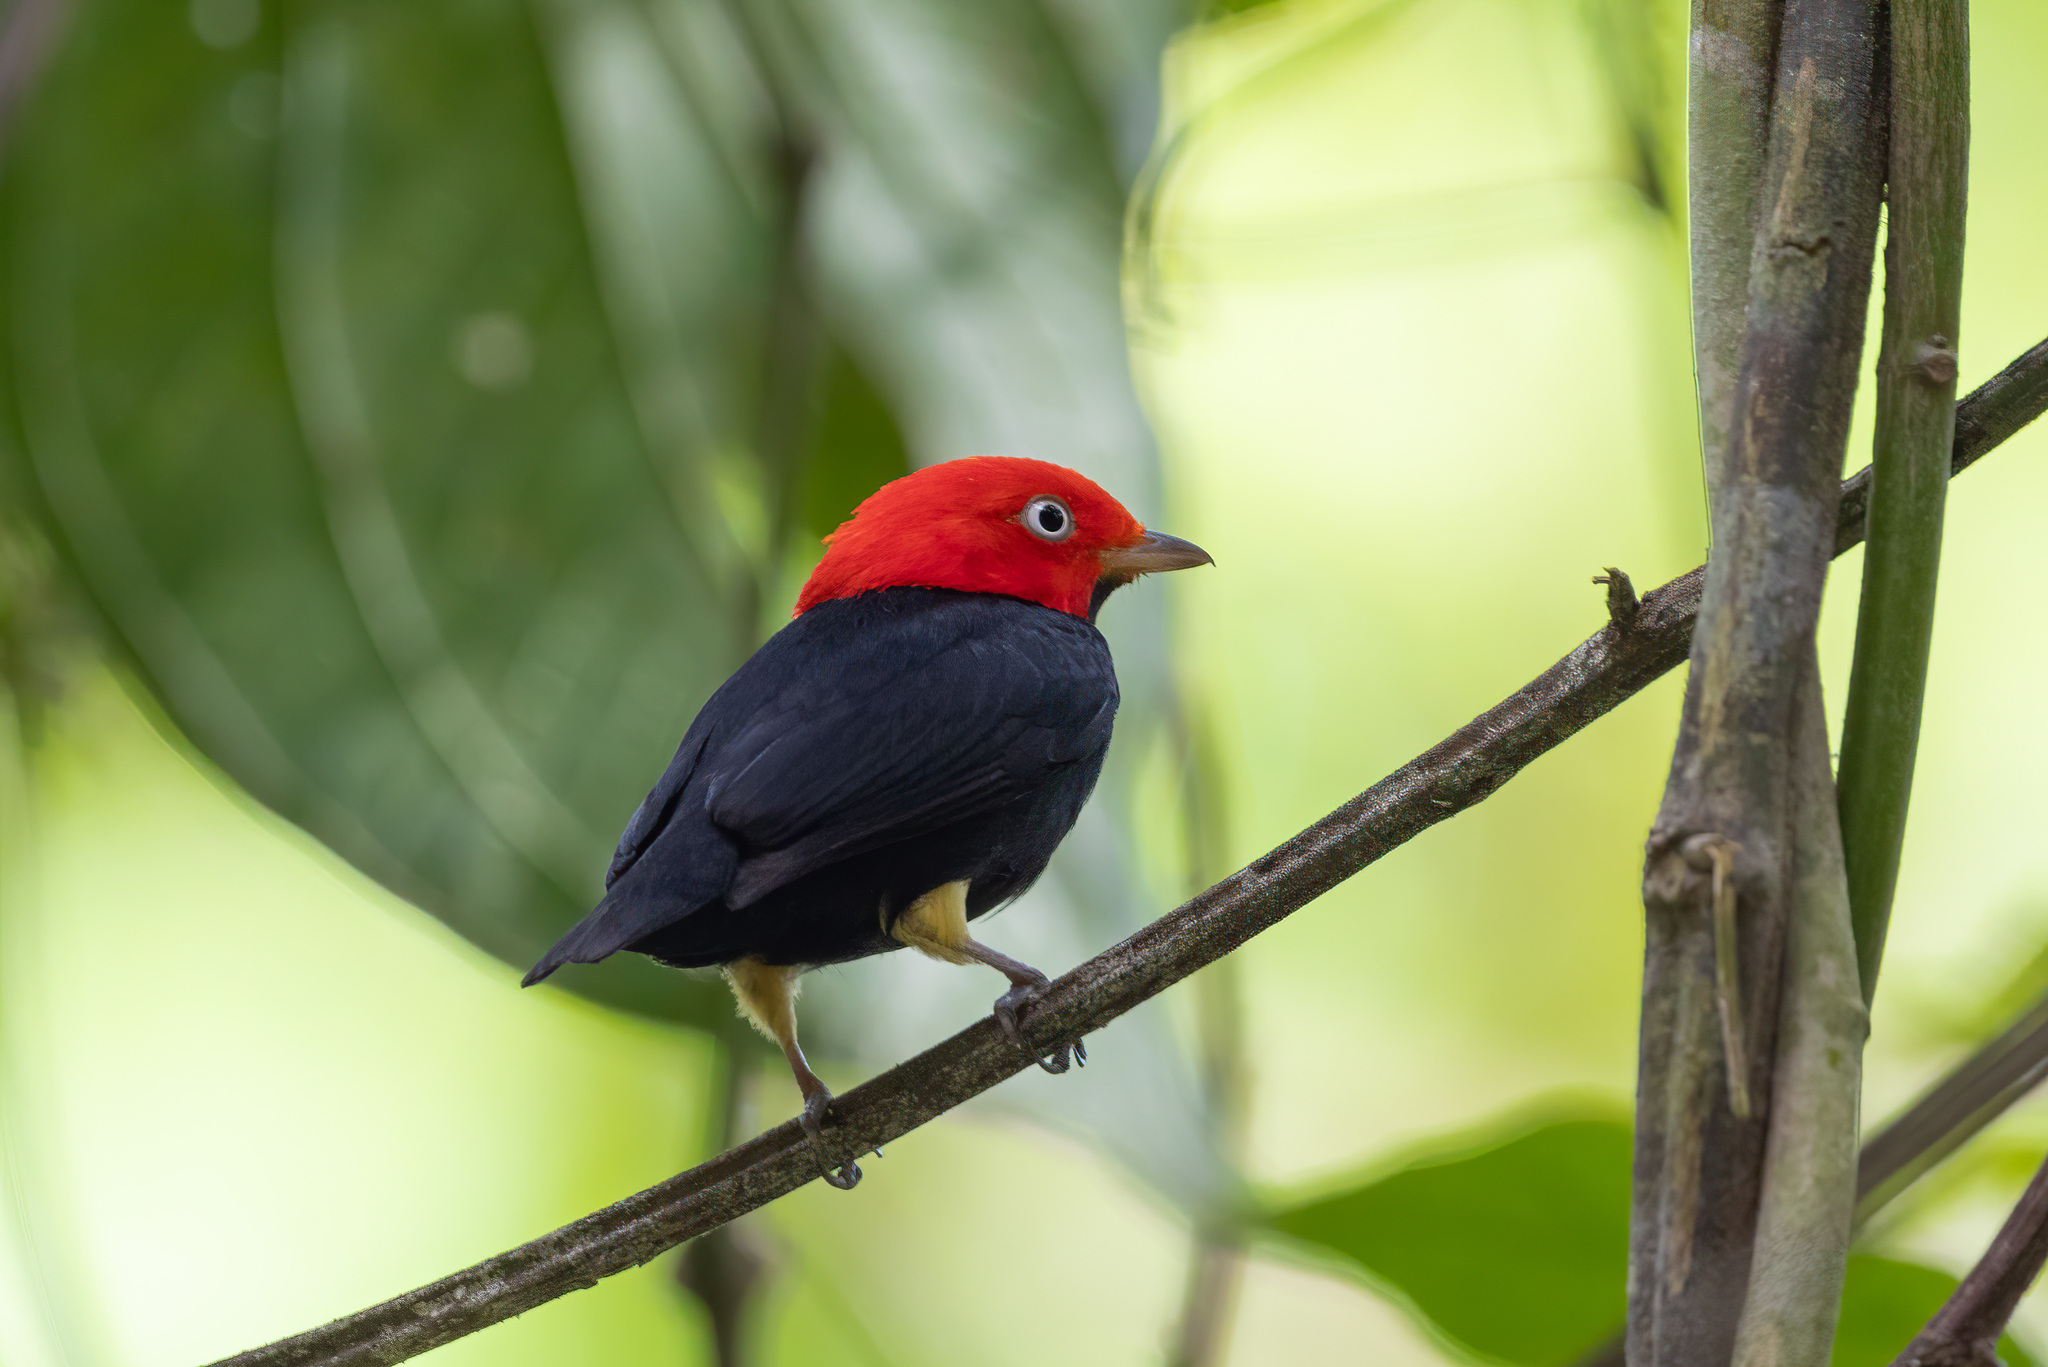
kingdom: Animalia
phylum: Chordata
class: Aves
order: Passeriformes
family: Pipridae
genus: Pipra
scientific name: Pipra mentalis
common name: Red-capped manakin
